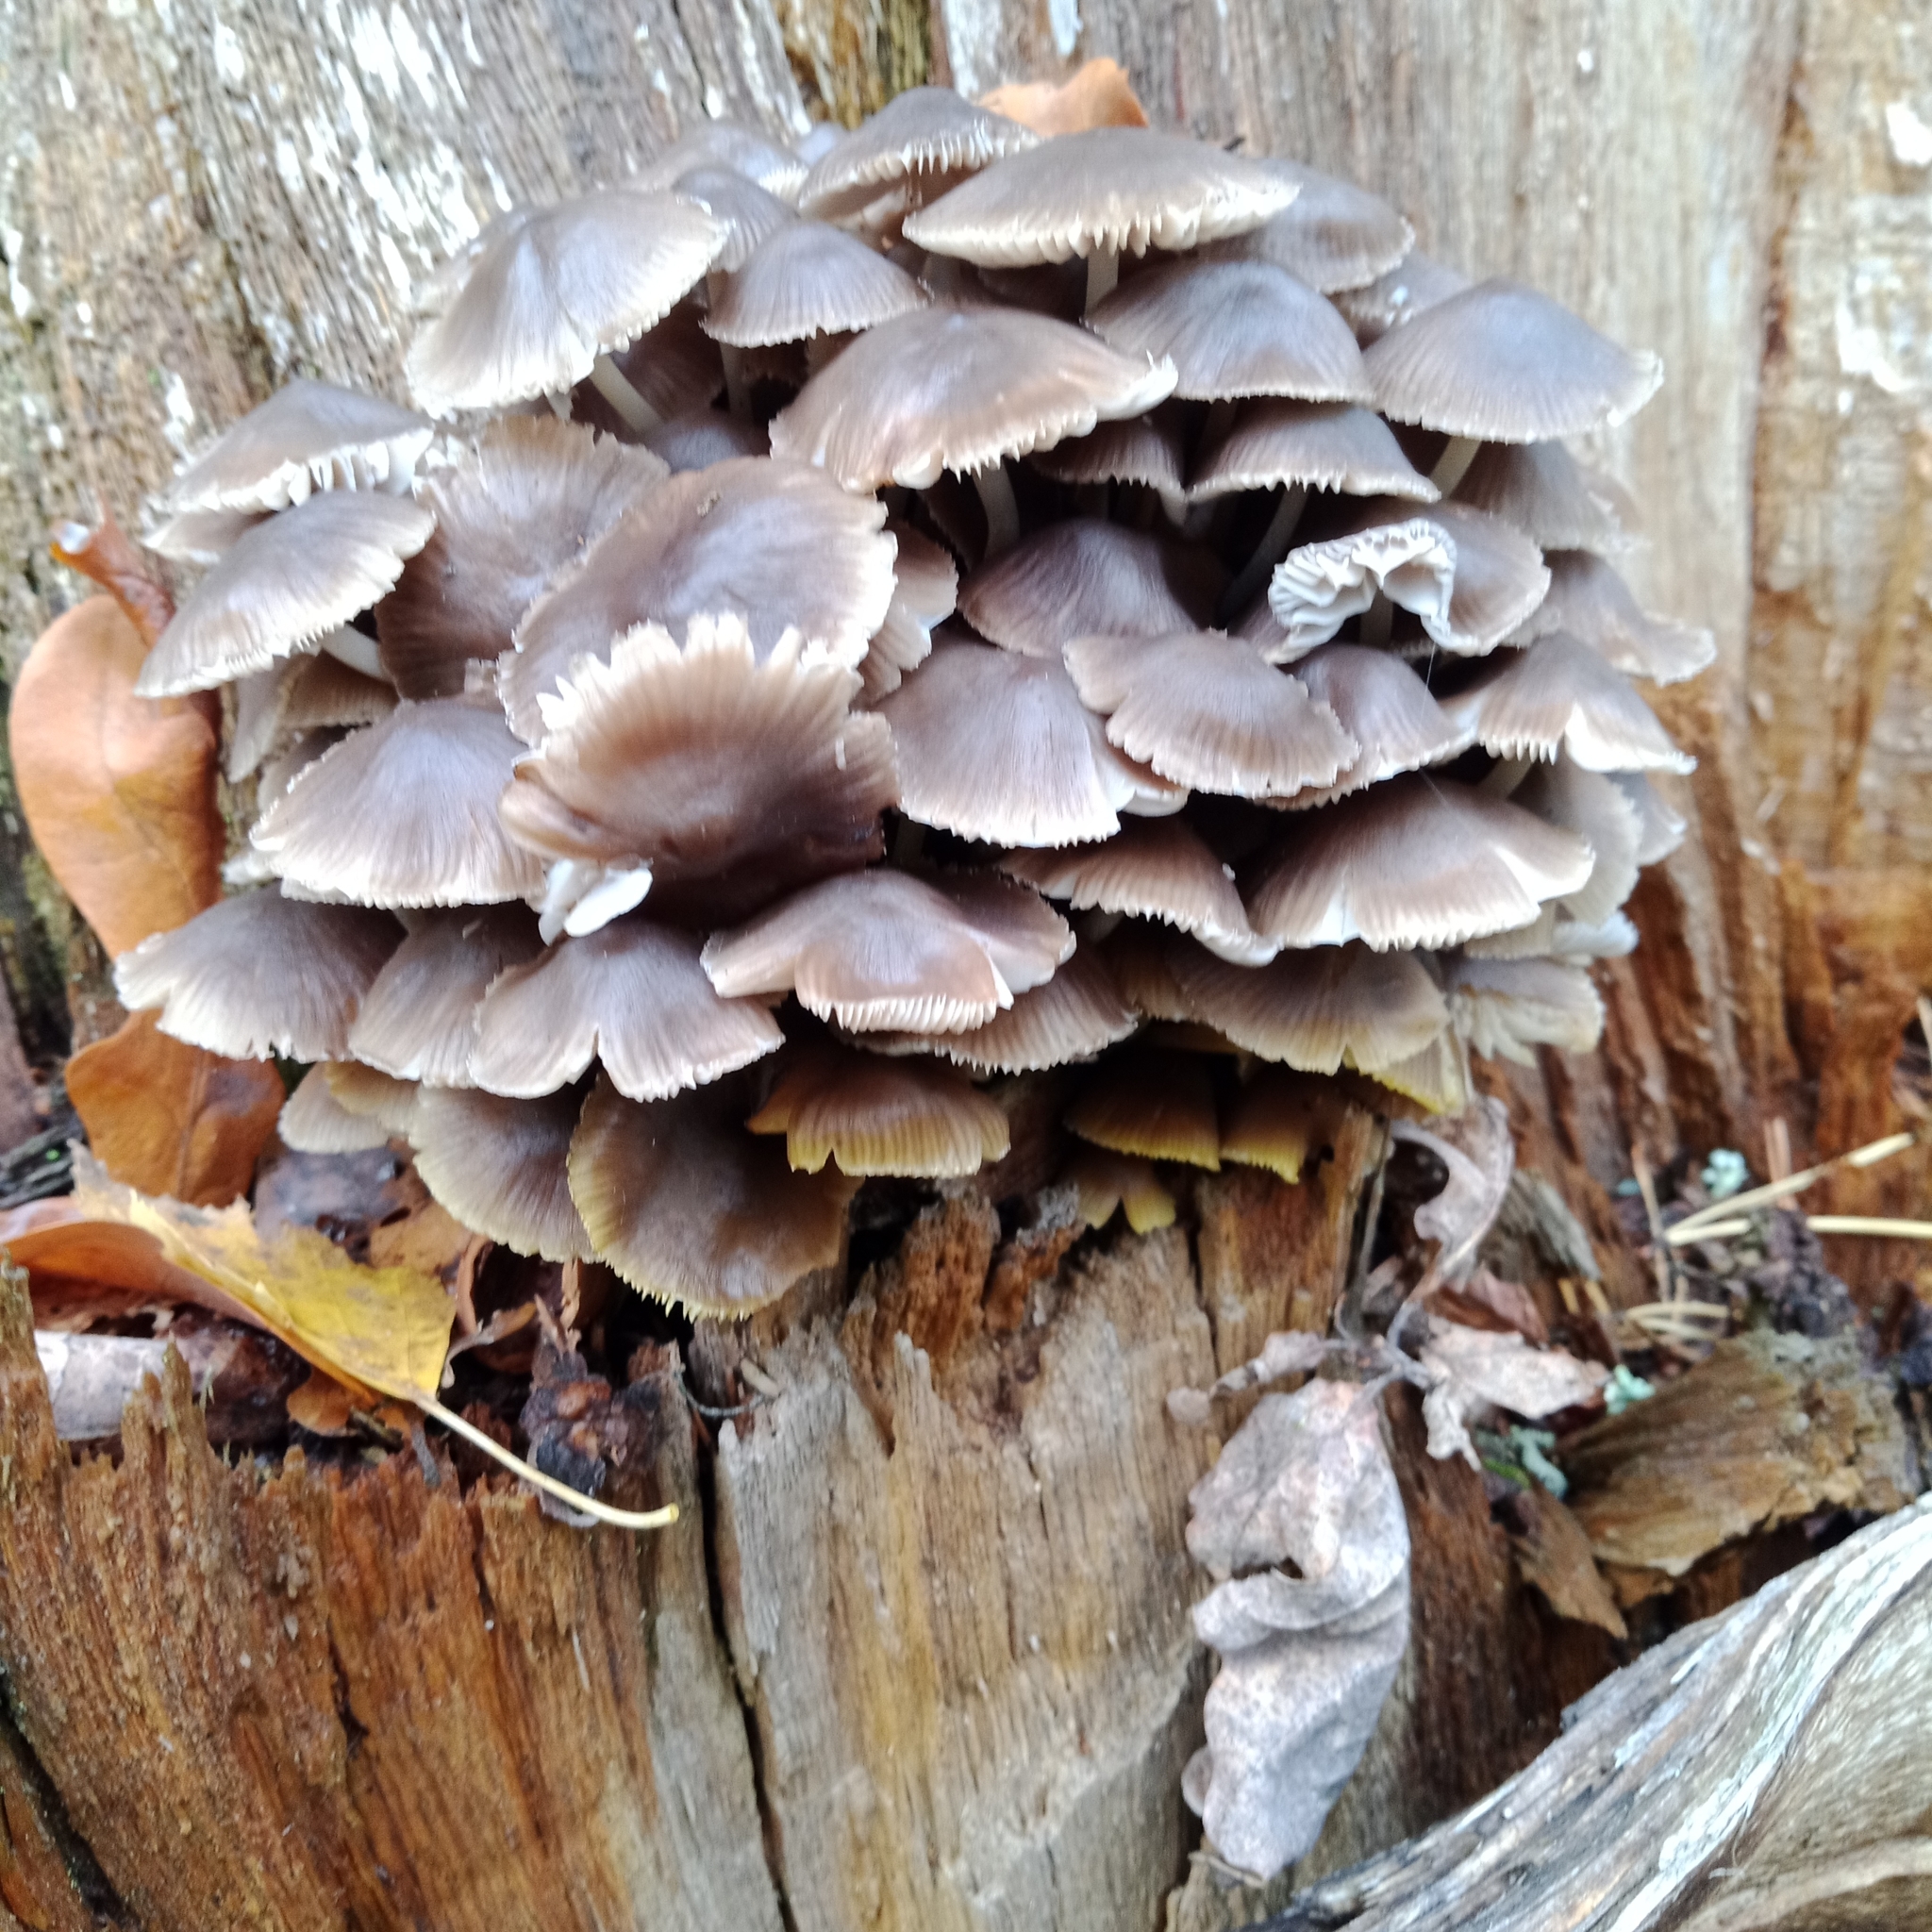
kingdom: Fungi
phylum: Basidiomycota
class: Agaricomycetes
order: Agaricales
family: Mycenaceae
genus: Mycena
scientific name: Mycena inclinata
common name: Clustered bonnet
